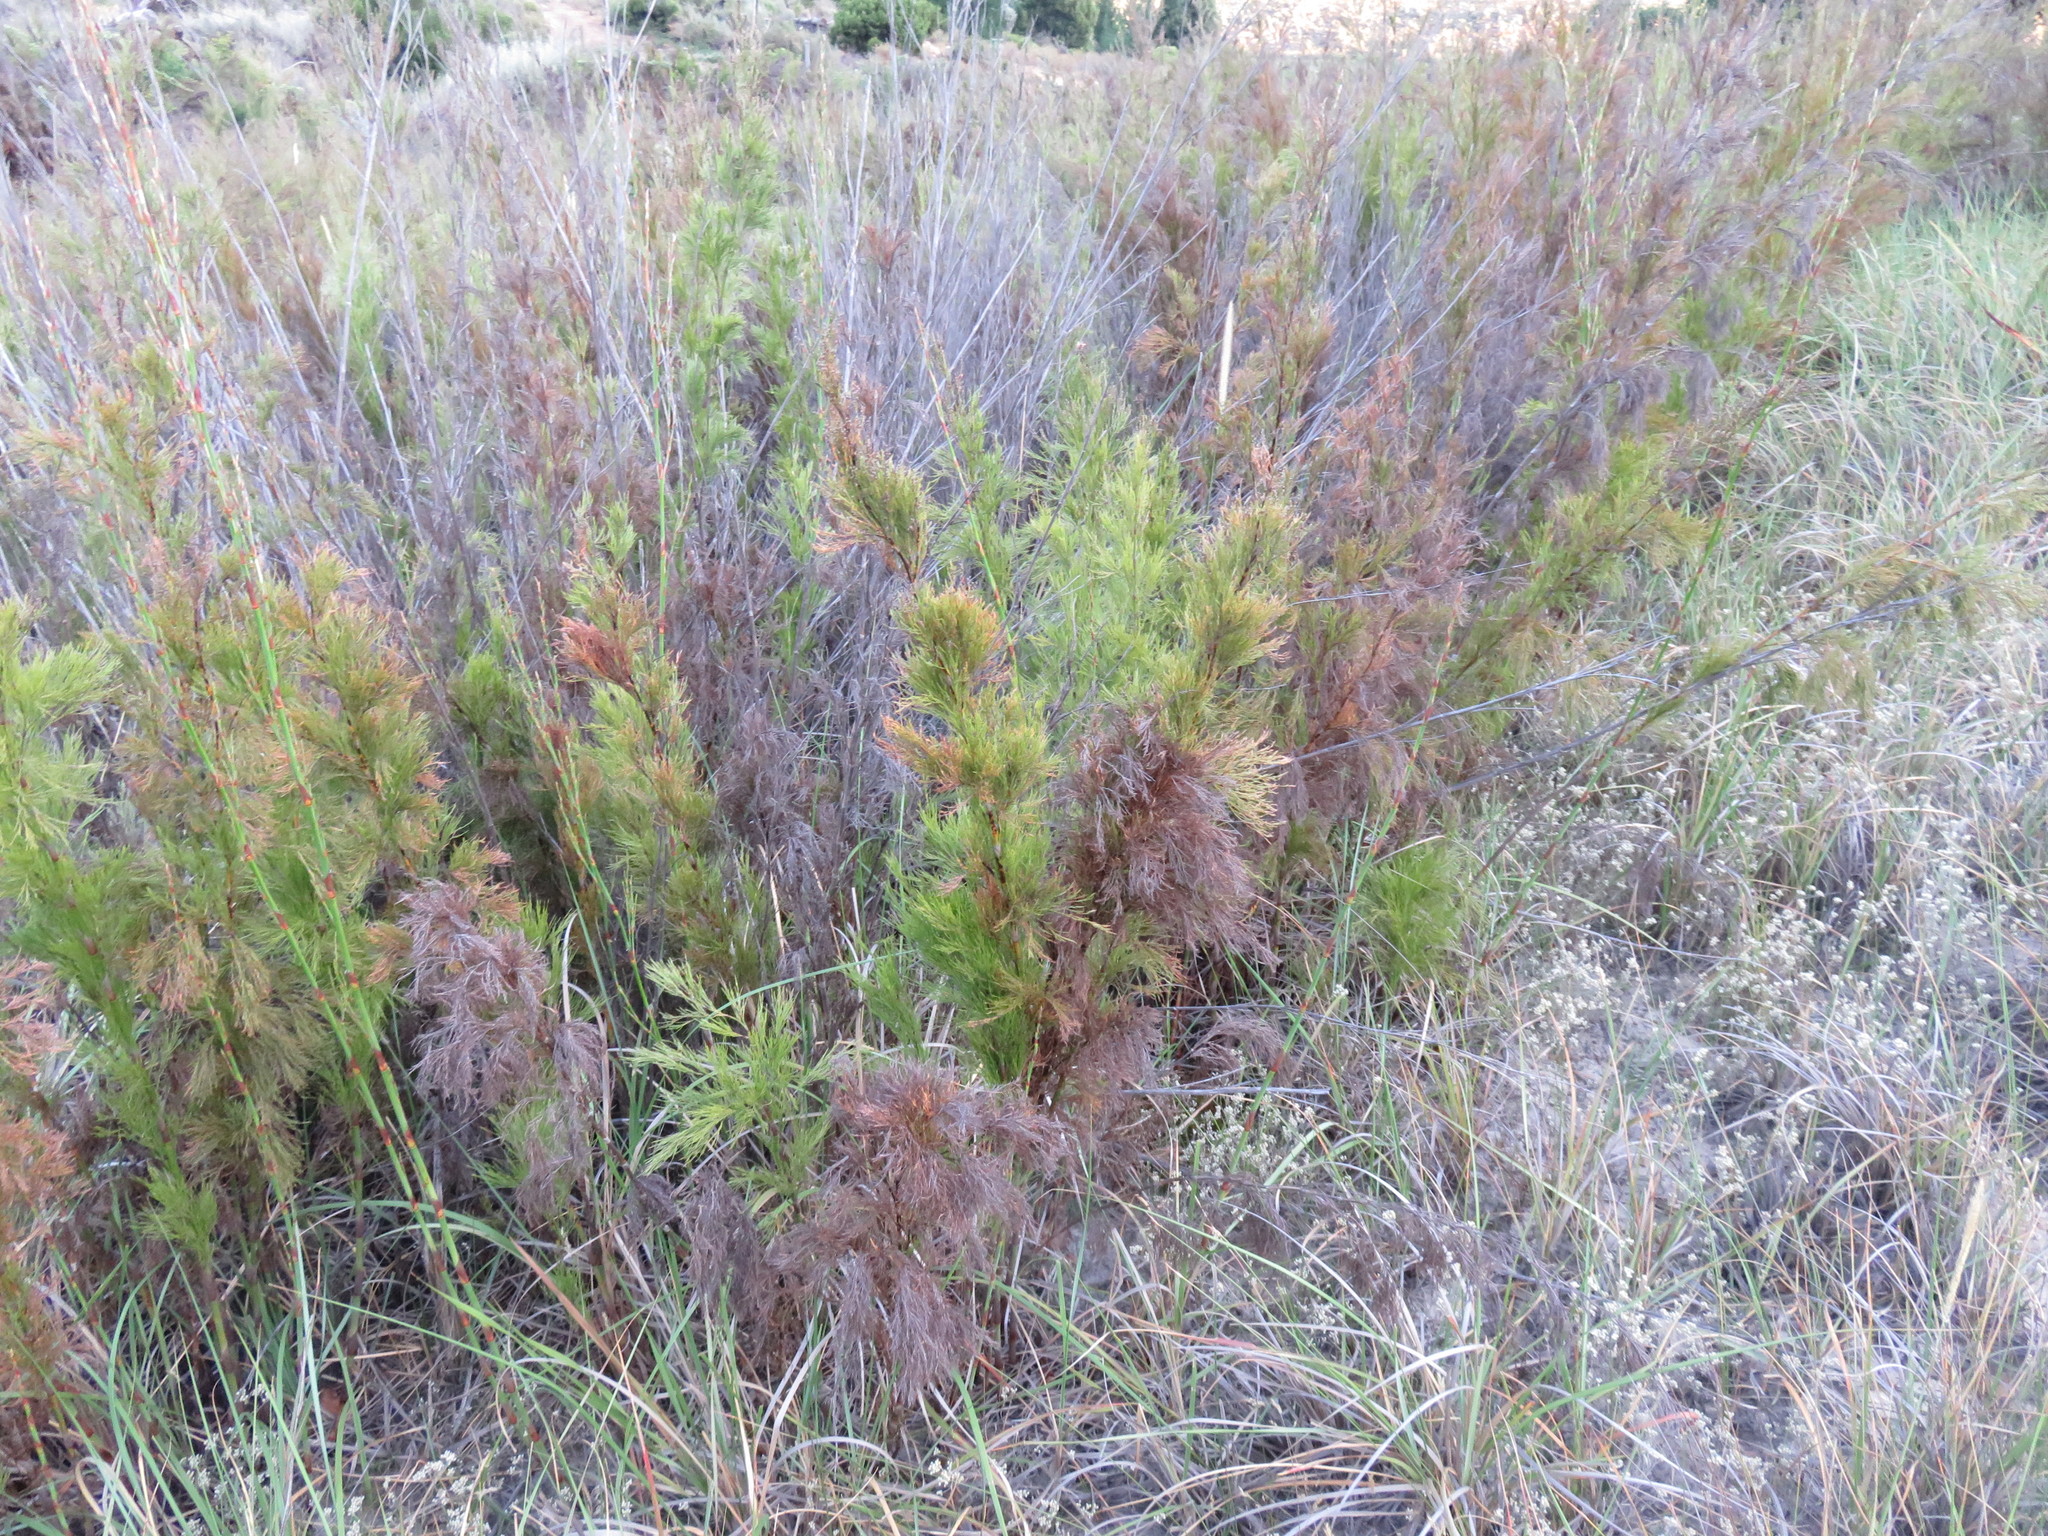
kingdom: Plantae
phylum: Tracheophyta
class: Liliopsida
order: Poales
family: Restionaceae
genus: Restio
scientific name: Restio paniculatus
